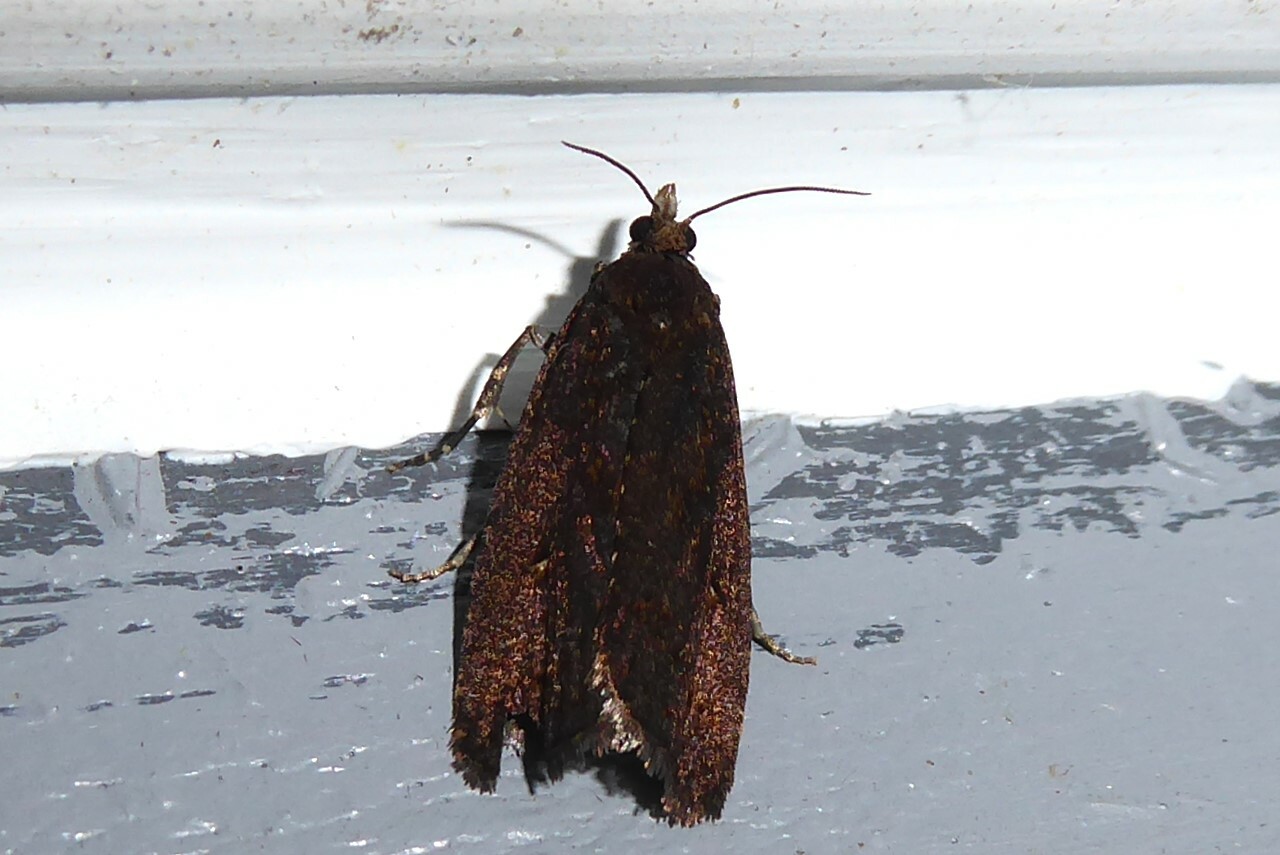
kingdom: Animalia
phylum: Arthropoda
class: Insecta
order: Lepidoptera
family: Tortricidae
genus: Cryptaspasma
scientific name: Cryptaspasma querula
